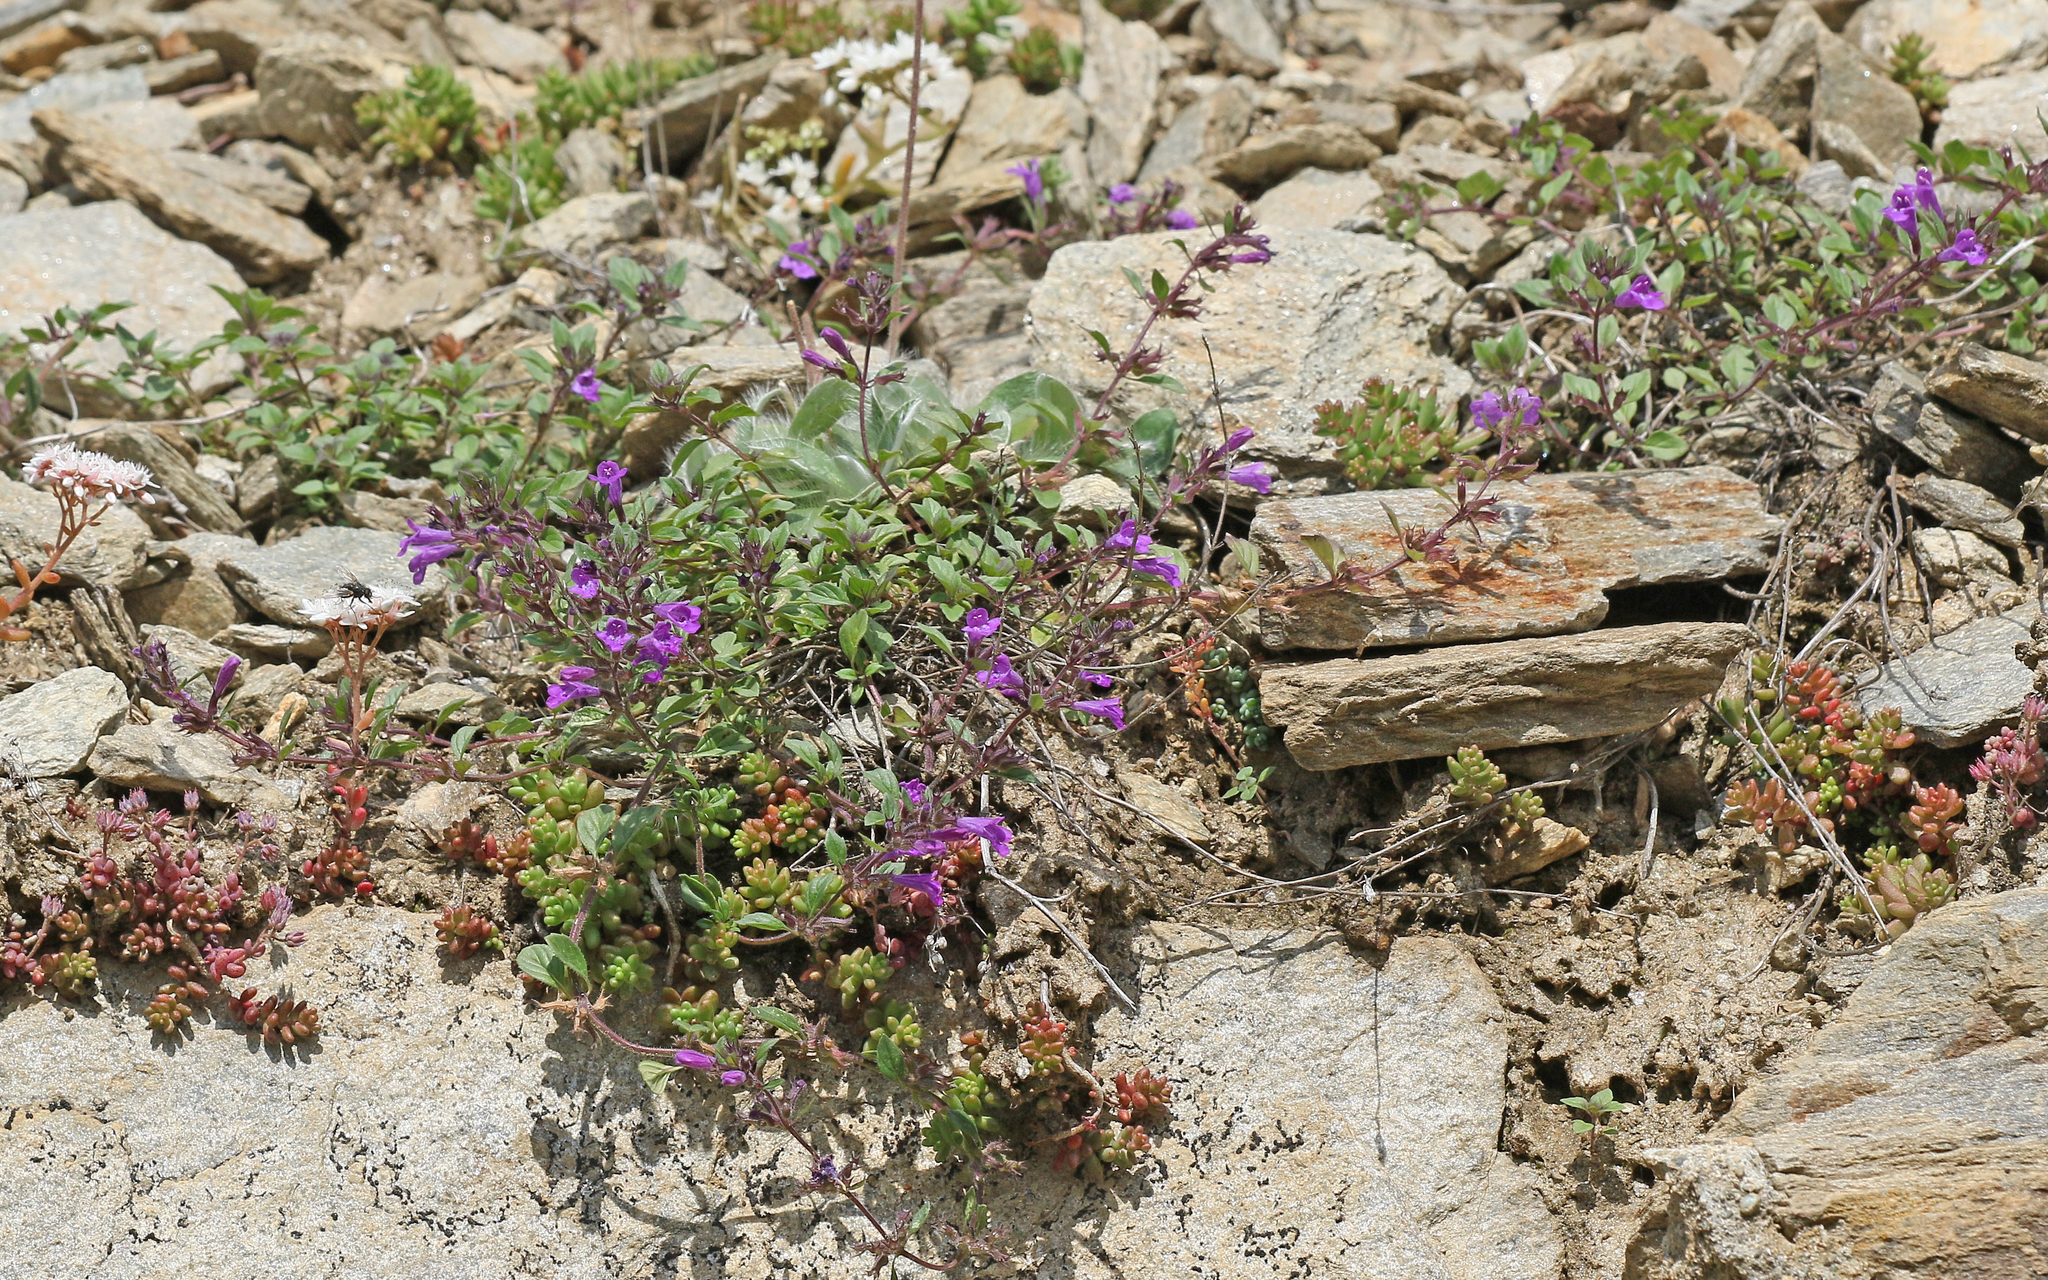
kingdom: Plantae
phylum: Tracheophyta
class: Magnoliopsida
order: Lamiales
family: Lamiaceae
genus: Clinopodium
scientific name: Clinopodium alpinum
